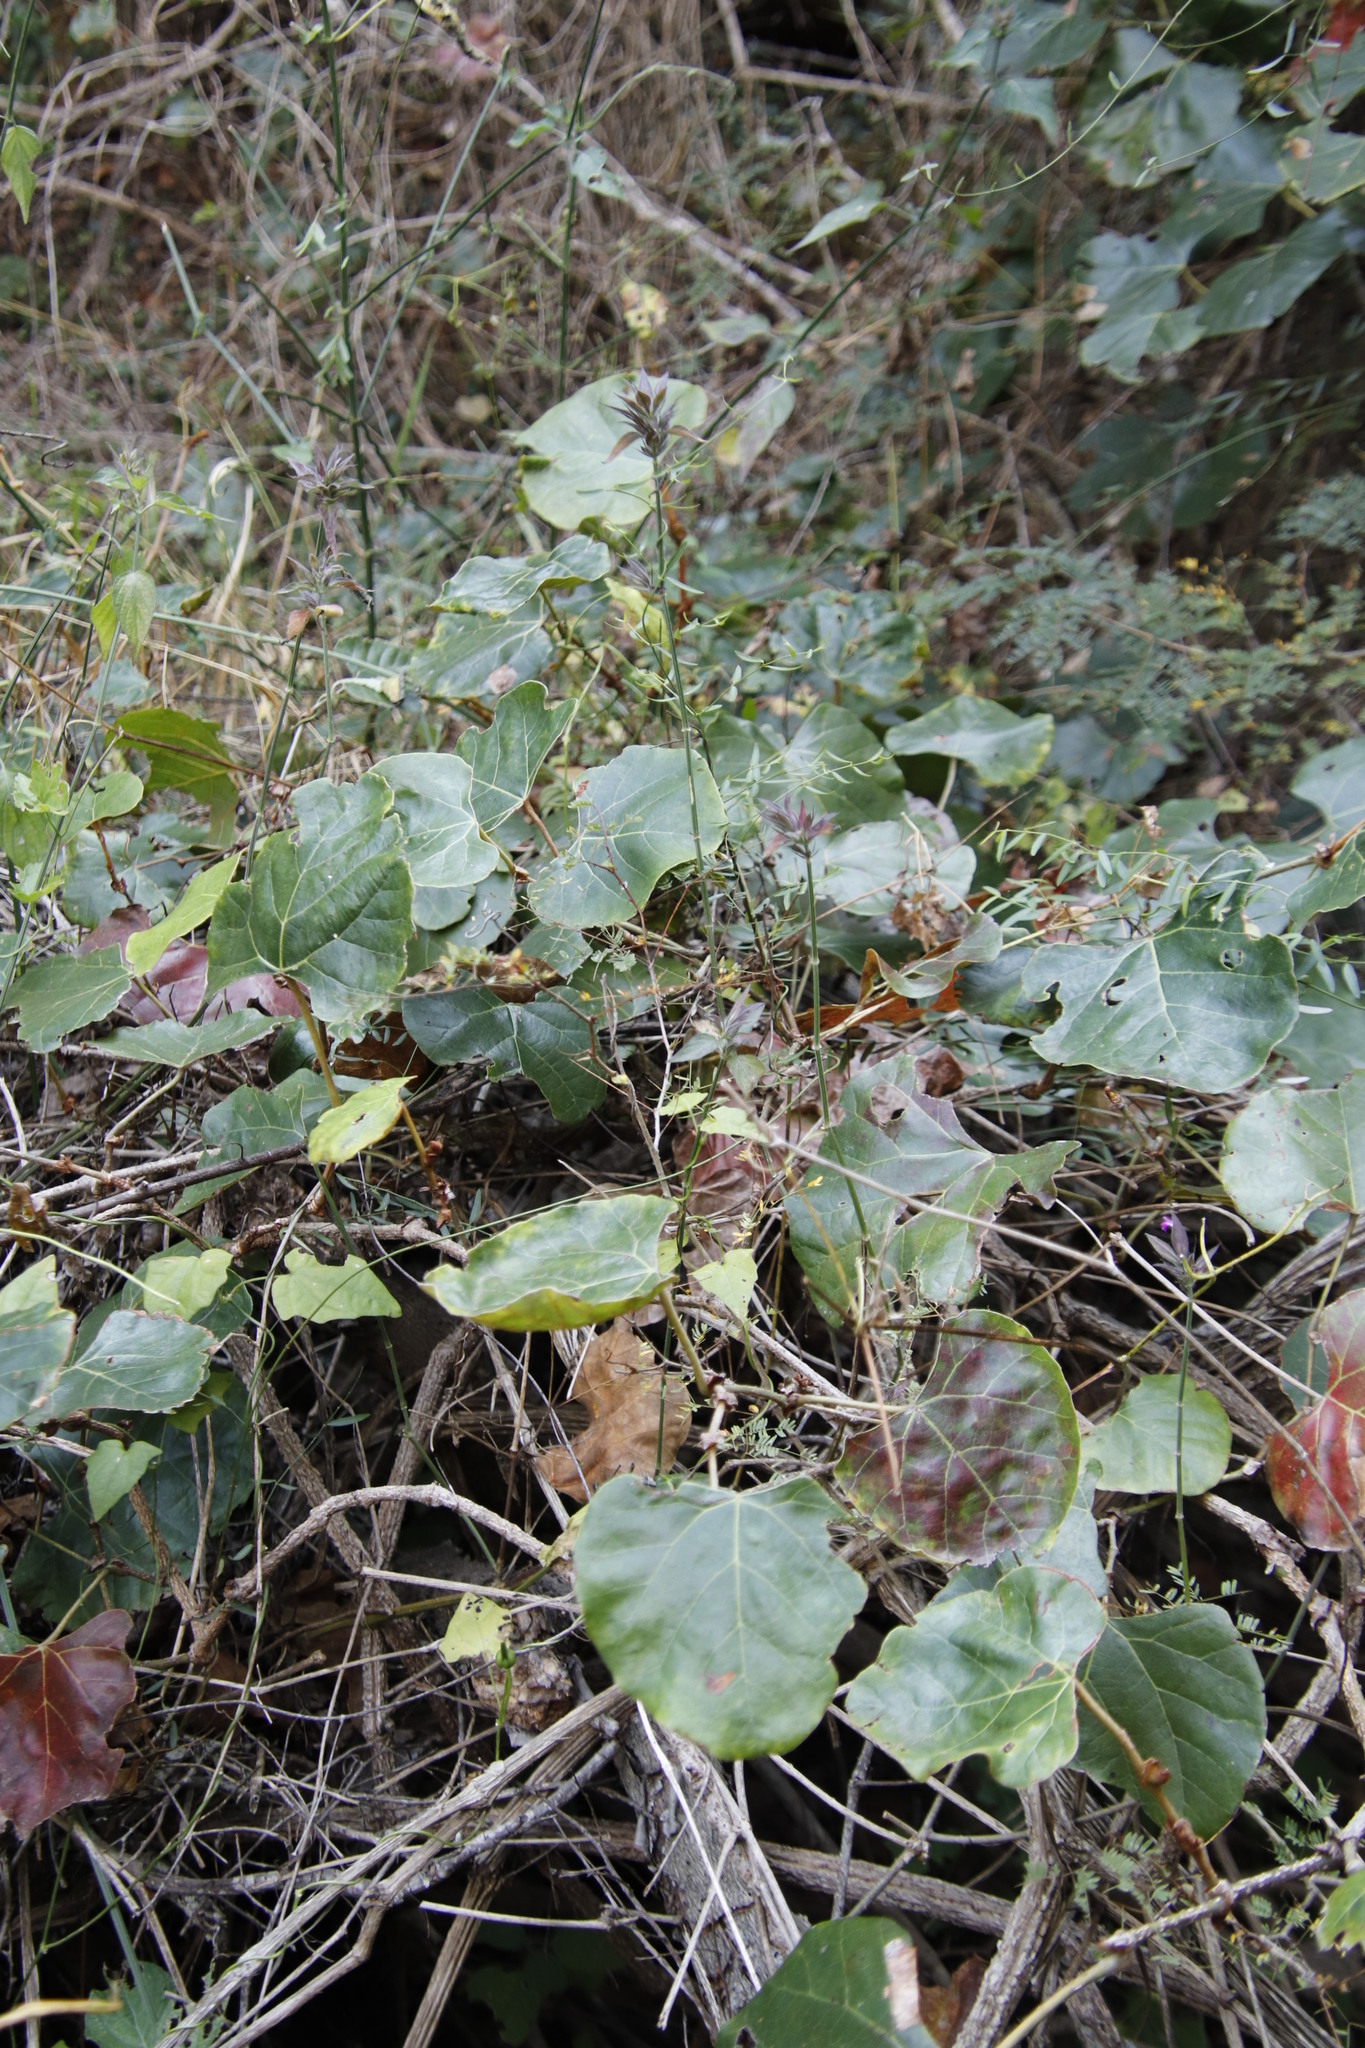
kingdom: Plantae
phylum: Tracheophyta
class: Magnoliopsida
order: Vitales
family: Vitaceae
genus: Rhoicissus
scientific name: Rhoicissus tomentosa
